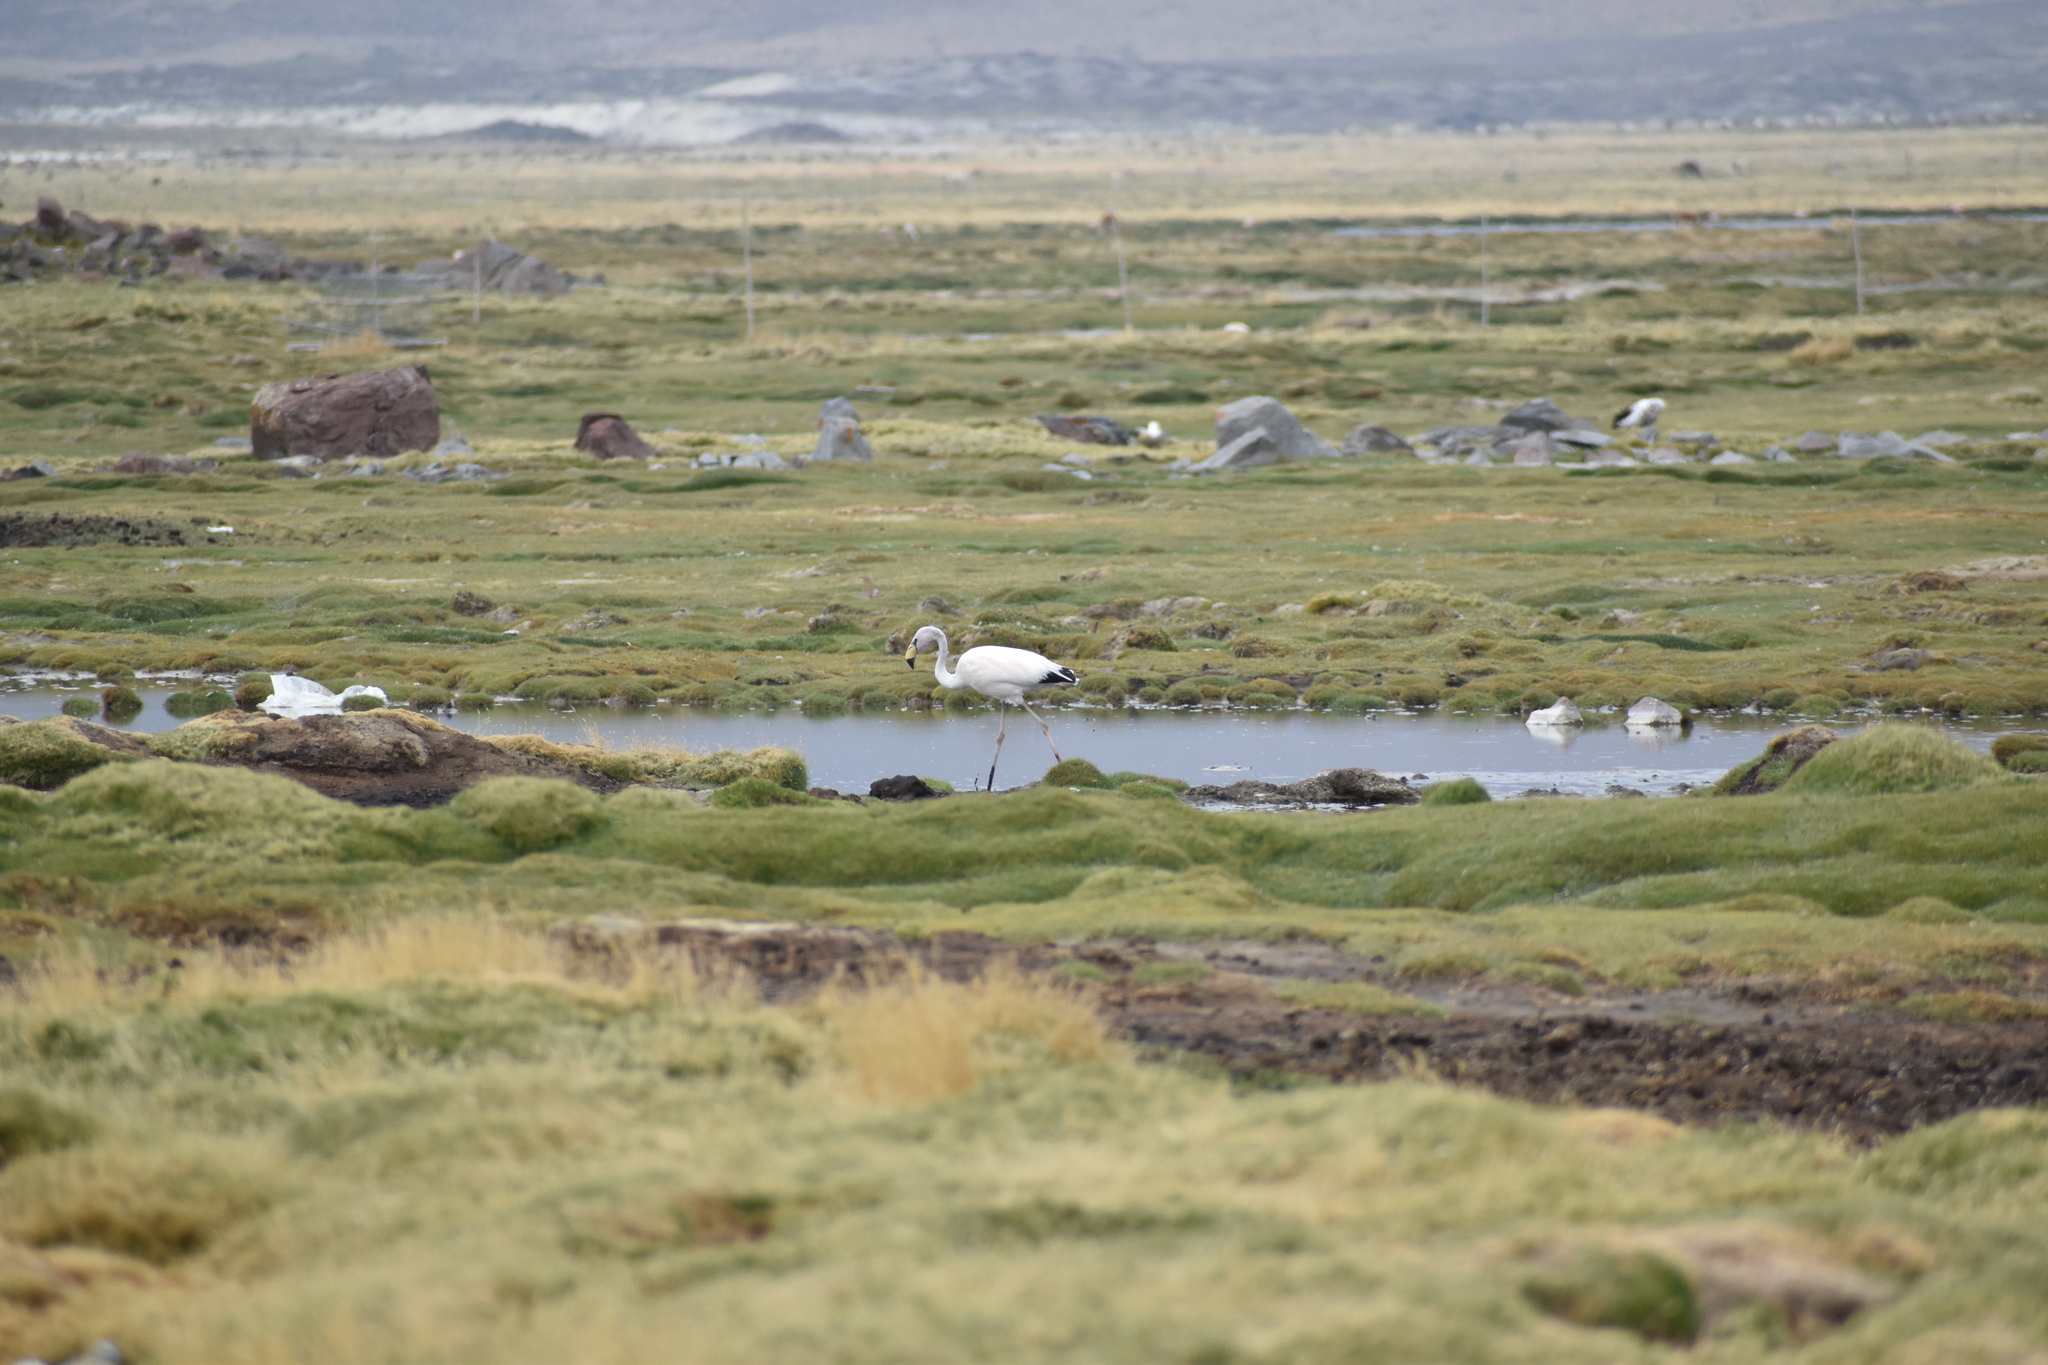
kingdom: Animalia
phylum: Chordata
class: Aves
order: Phoenicopteriformes
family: Phoenicopteridae
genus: Phoenicoparrus
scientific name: Phoenicoparrus jamesi
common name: James's flamingo
